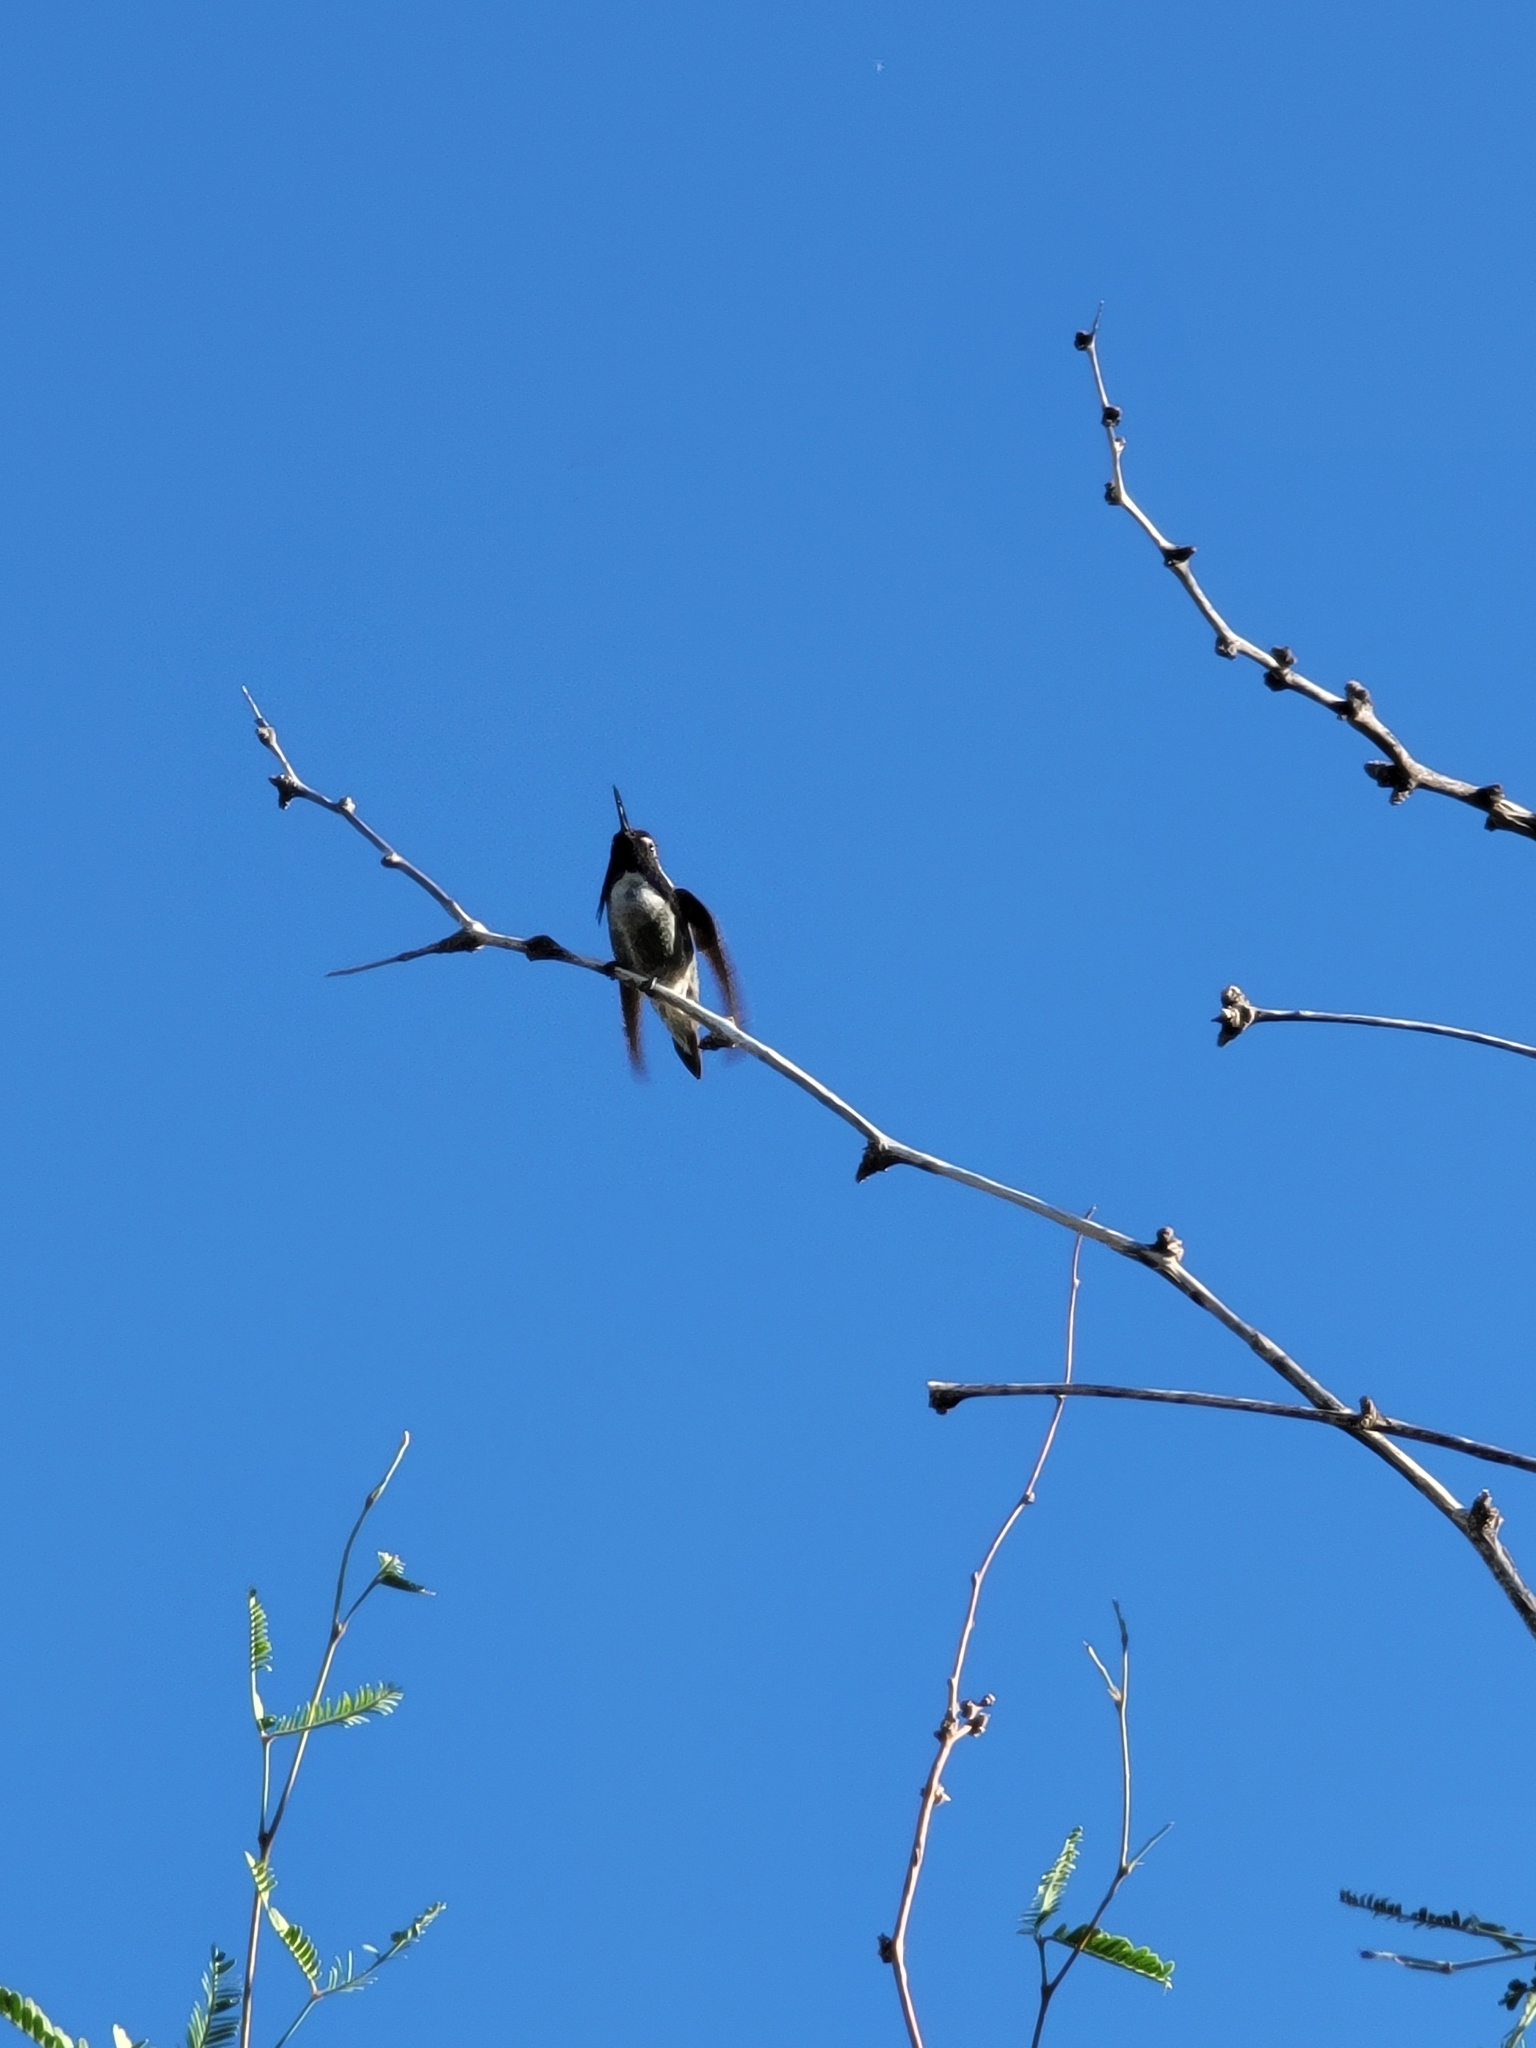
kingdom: Animalia
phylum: Chordata
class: Aves
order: Apodiformes
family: Trochilidae
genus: Calypte
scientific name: Calypte costae
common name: Costa's hummingbird
